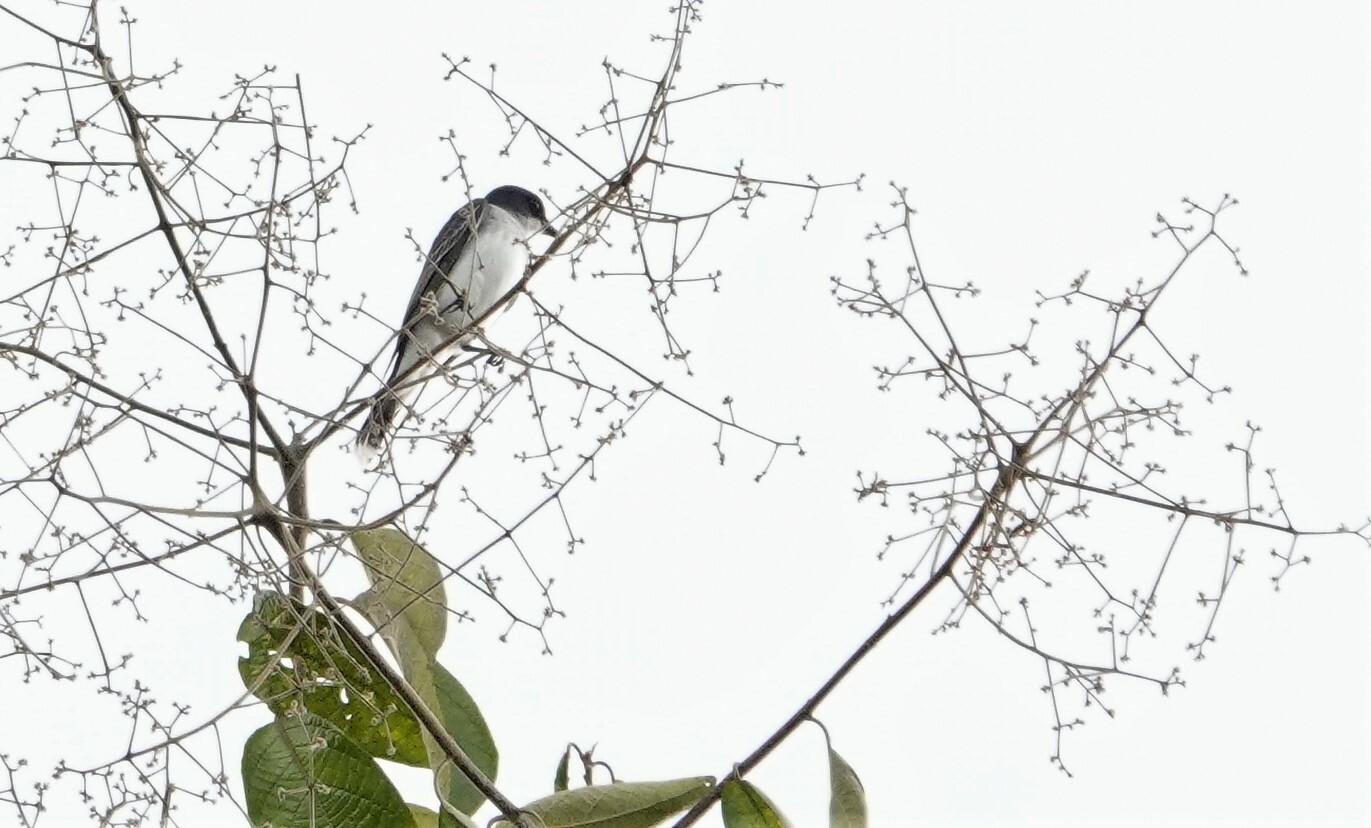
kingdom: Animalia
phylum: Chordata
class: Aves
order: Passeriformes
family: Tyrannidae
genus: Tyrannus
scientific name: Tyrannus tyrannus
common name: Eastern kingbird
